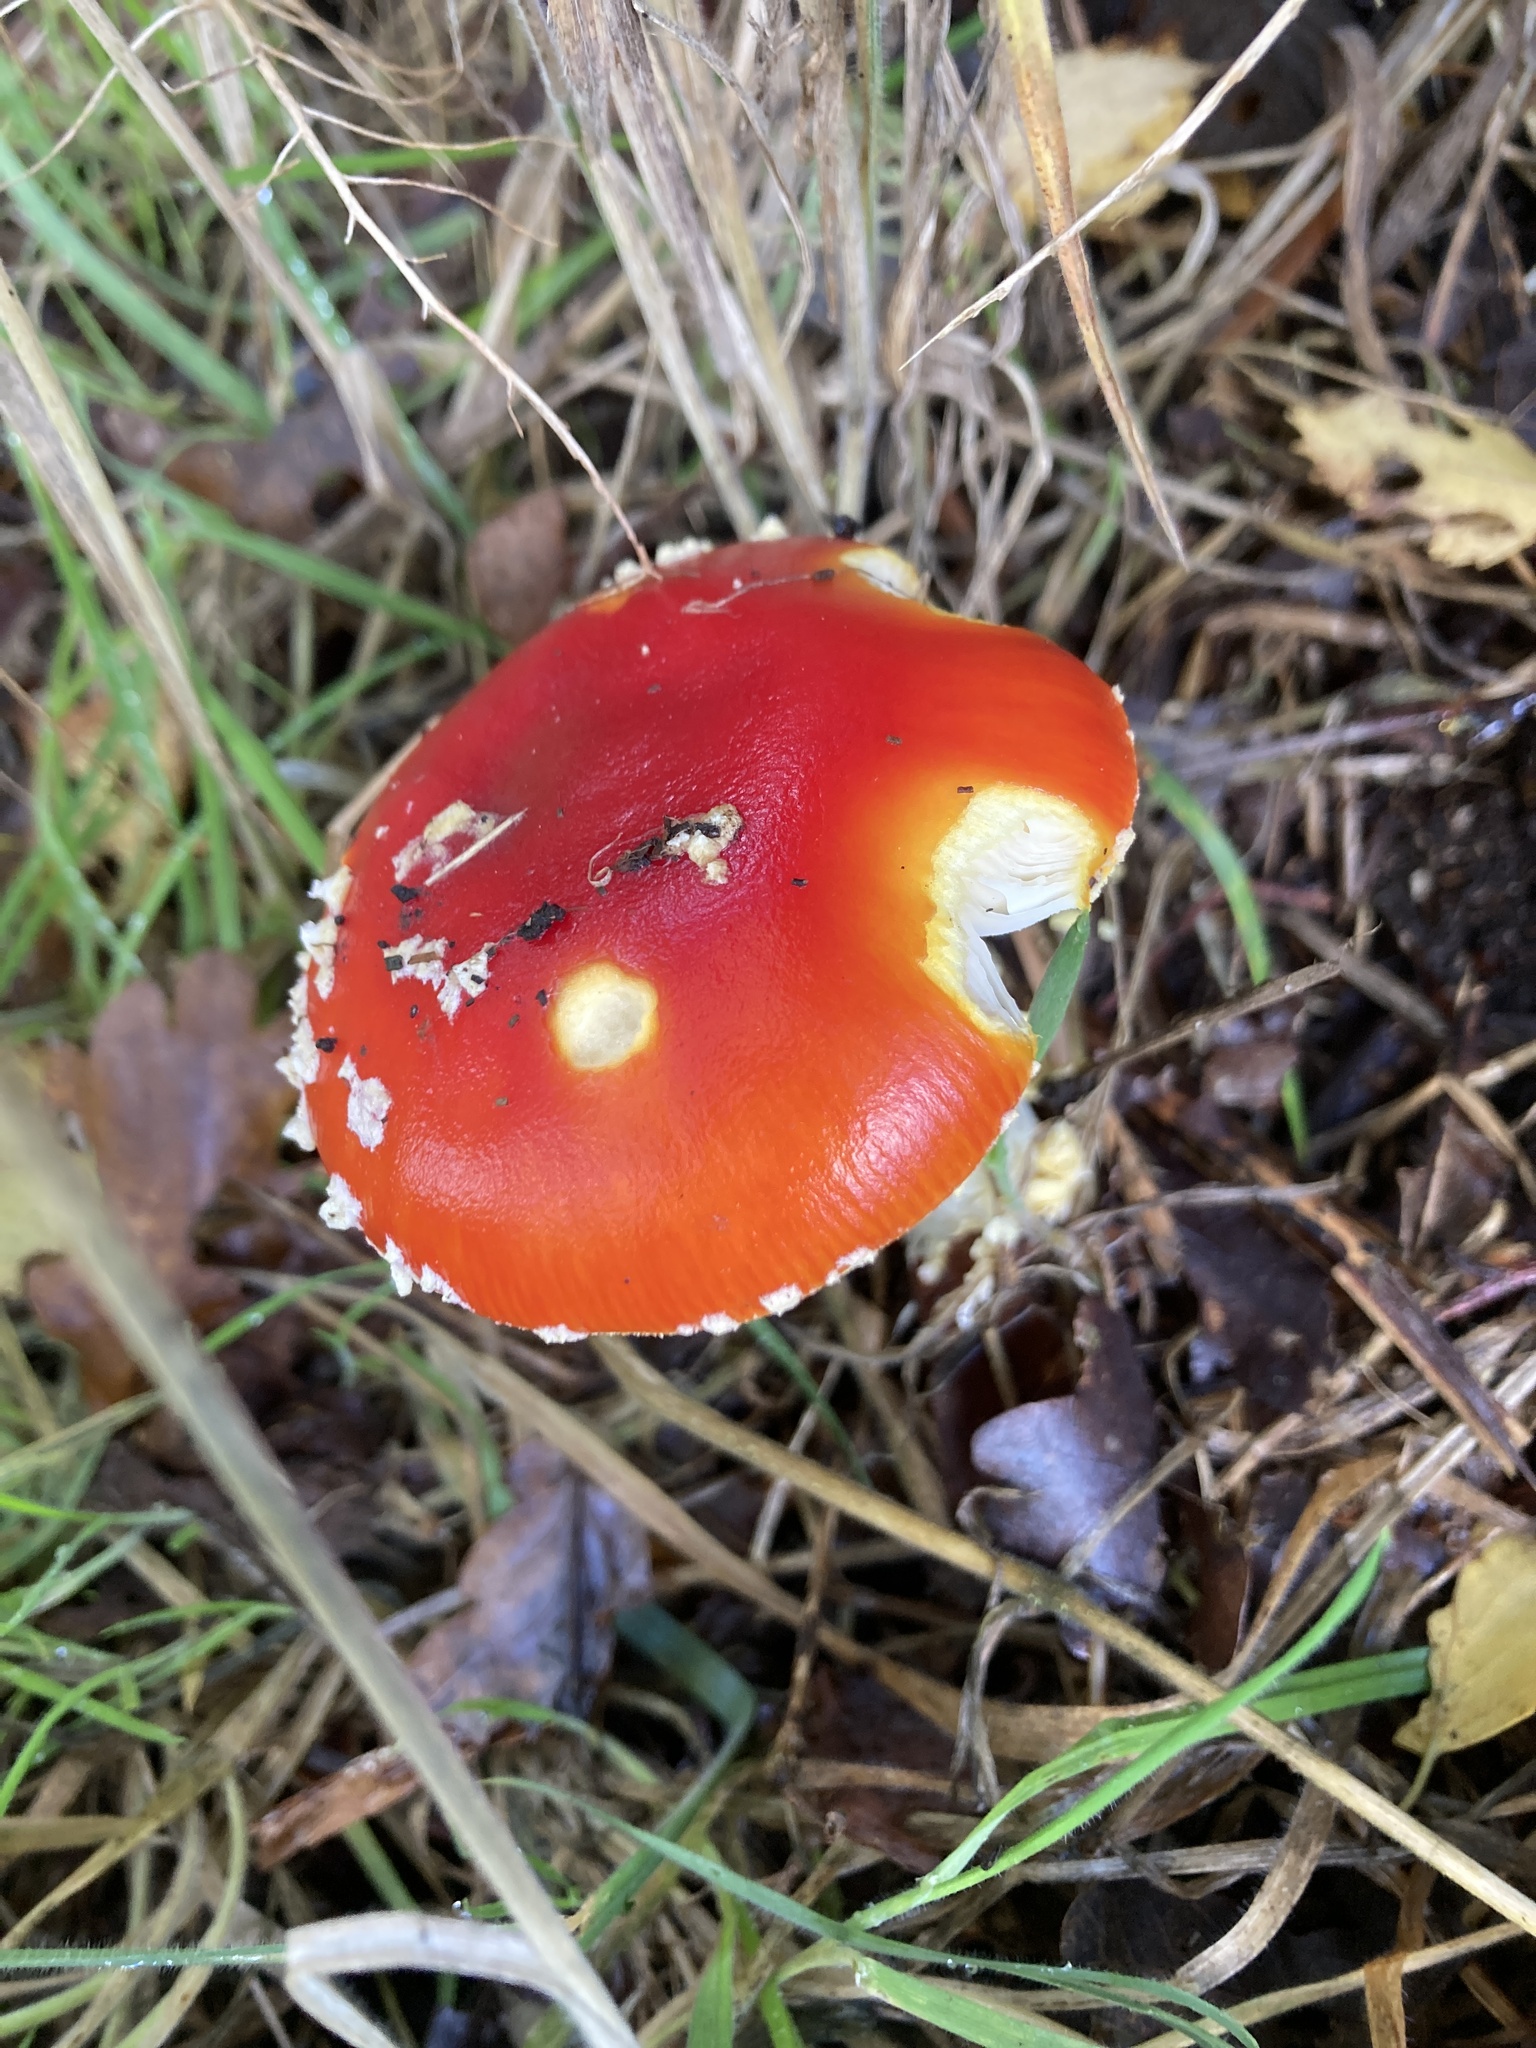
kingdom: Fungi
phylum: Basidiomycota
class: Agaricomycetes
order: Agaricales
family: Amanitaceae
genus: Amanita
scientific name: Amanita muscaria
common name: Fly agaric
